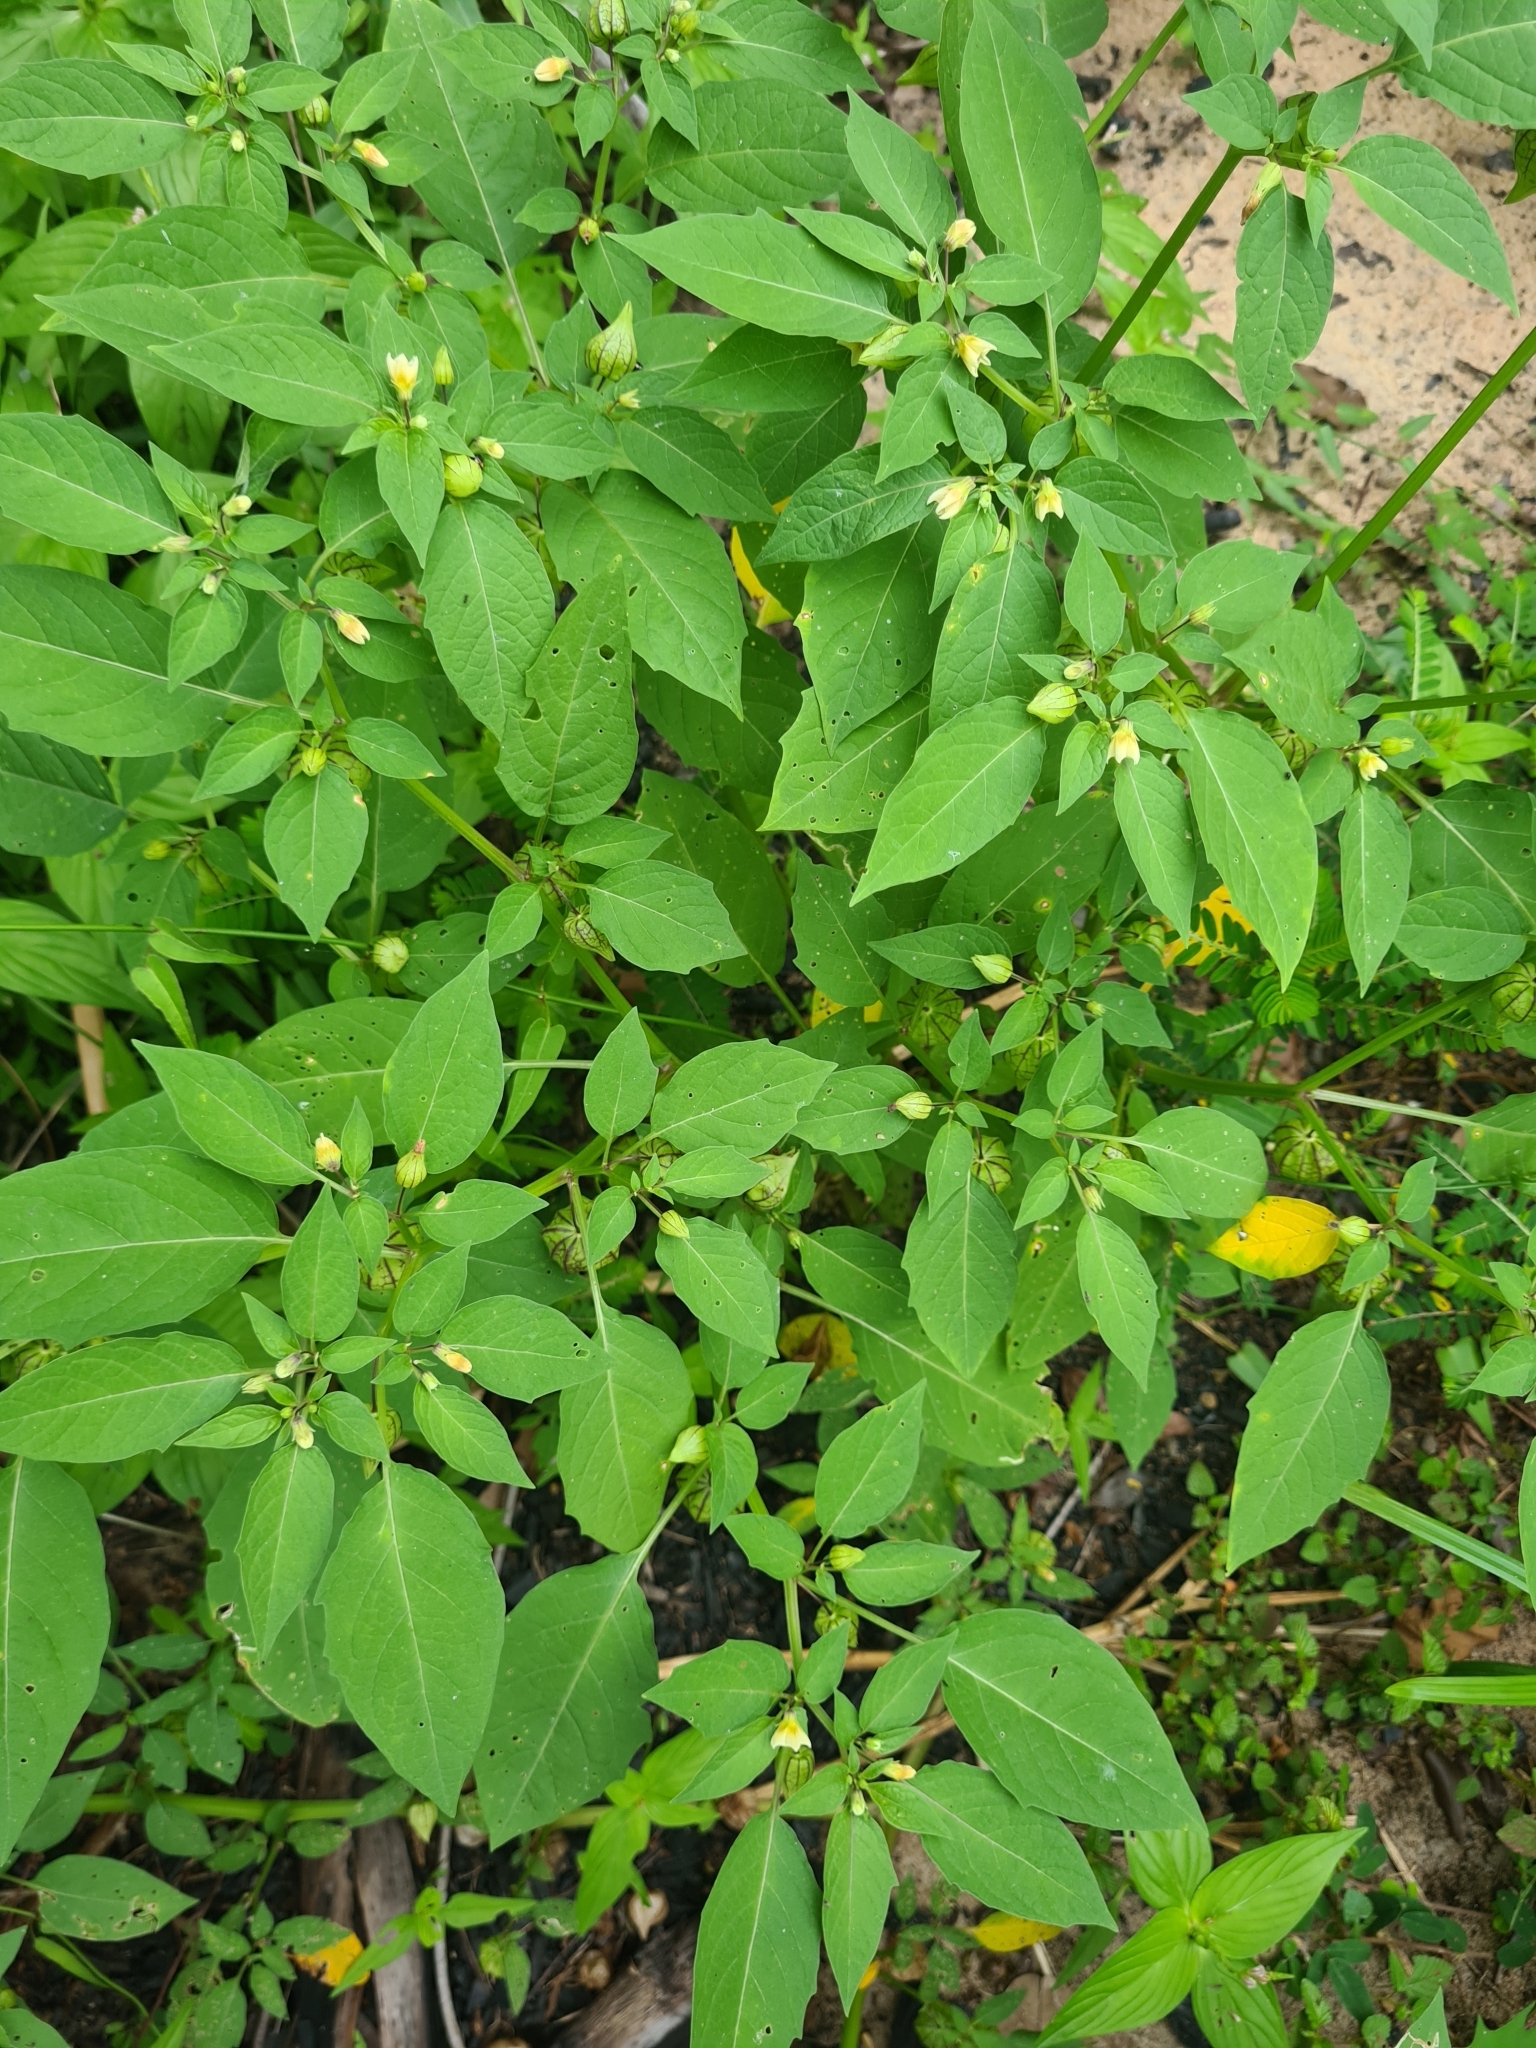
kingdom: Plantae
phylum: Tracheophyta
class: Magnoliopsida
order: Solanales
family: Solanaceae
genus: Physalis
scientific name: Physalis angulata
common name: Angular winter-cherry
